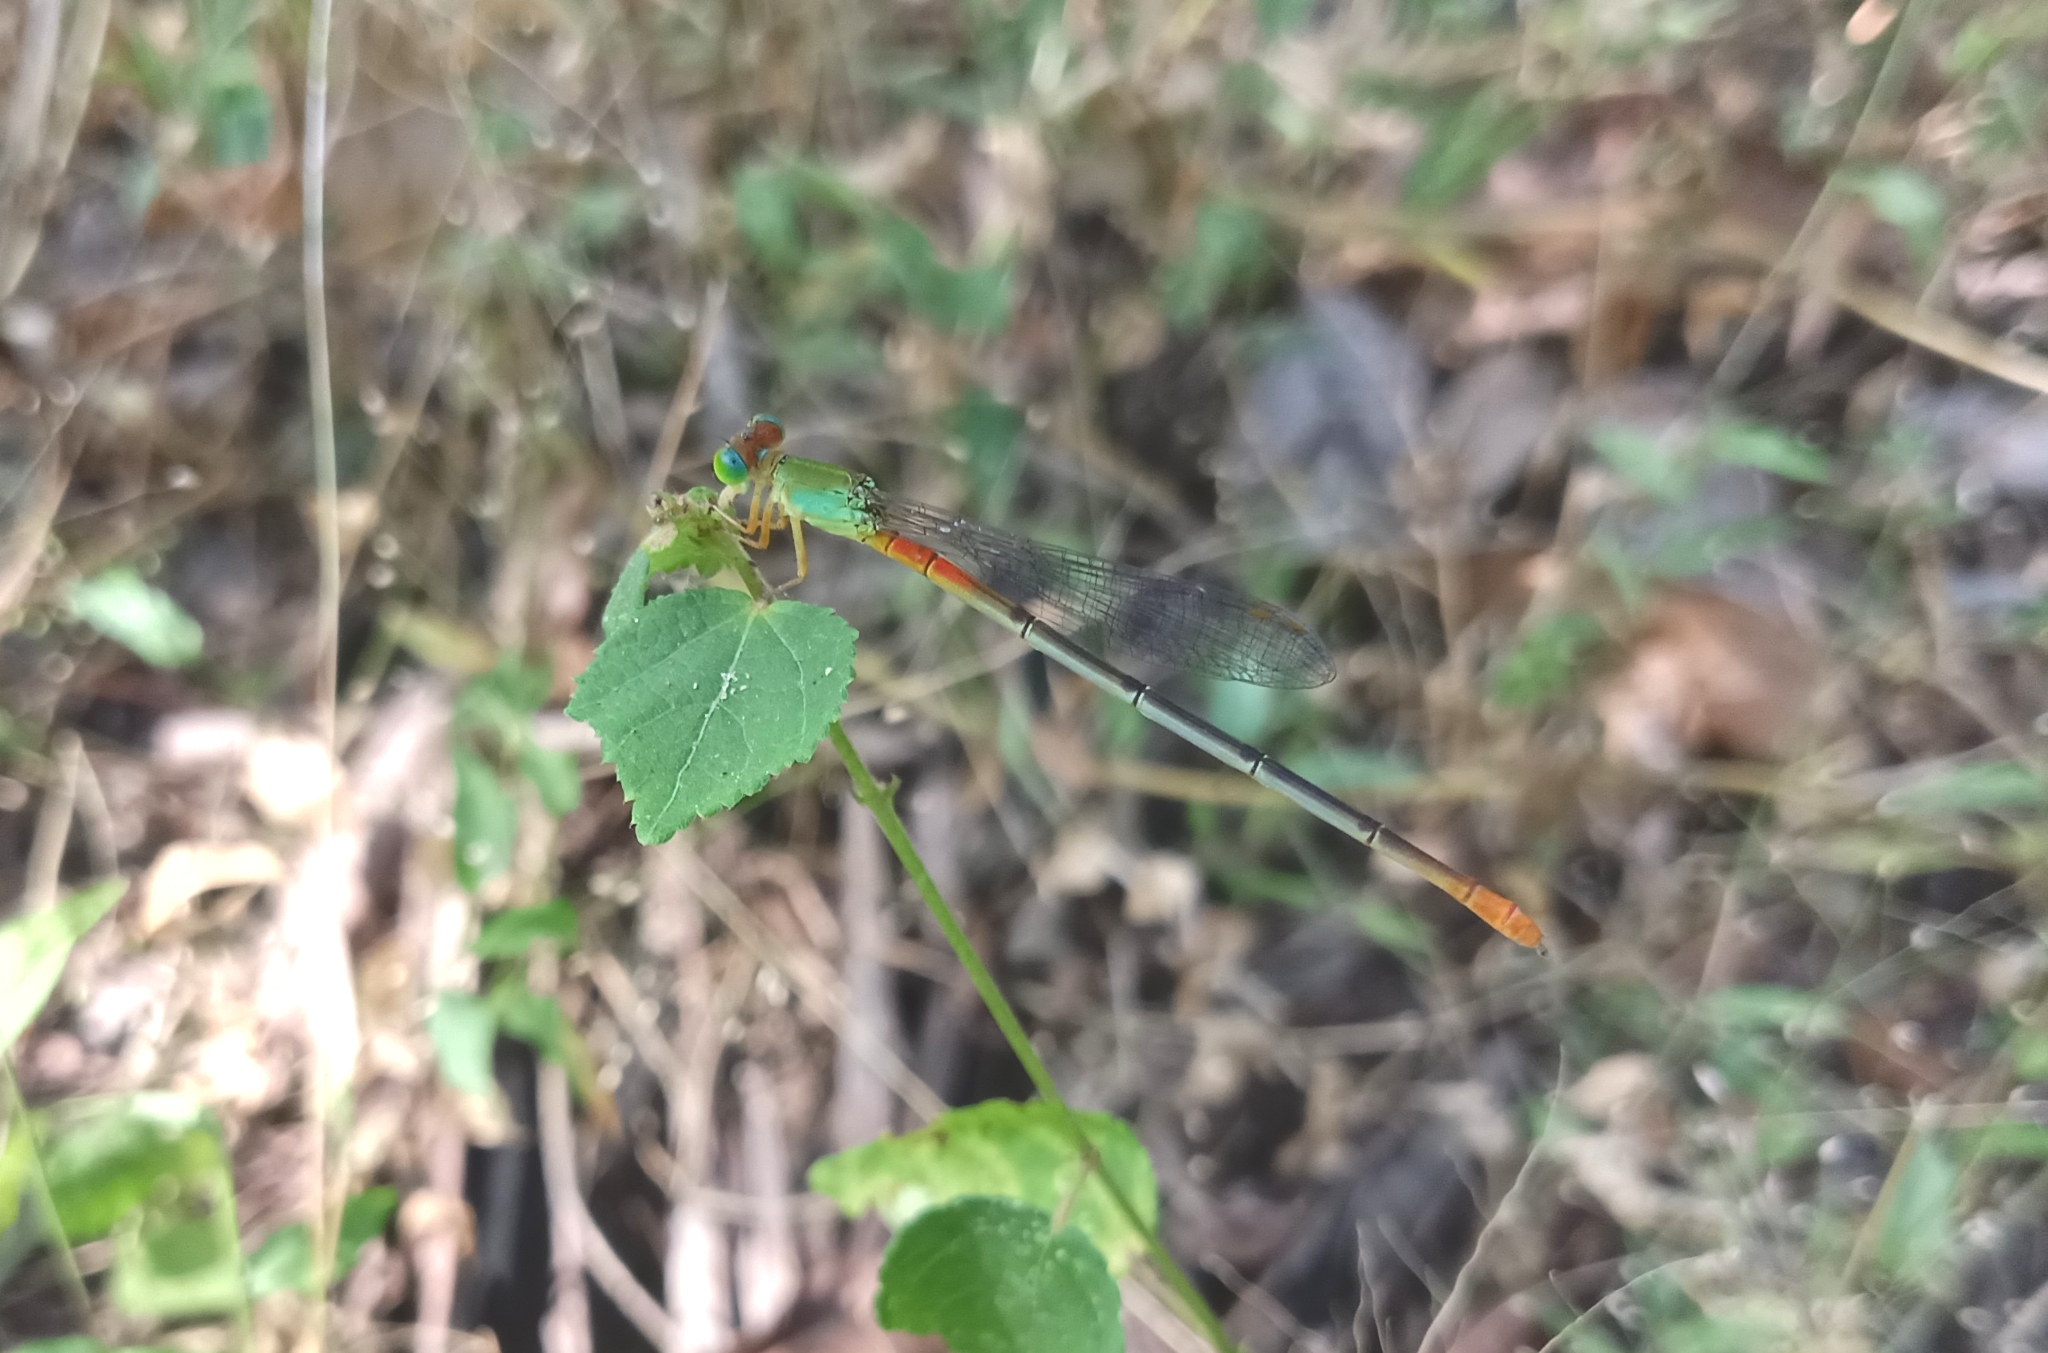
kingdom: Animalia
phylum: Arthropoda
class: Insecta
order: Odonata
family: Coenagrionidae
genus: Ceriagrion
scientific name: Ceriagrion cerinorubellum
